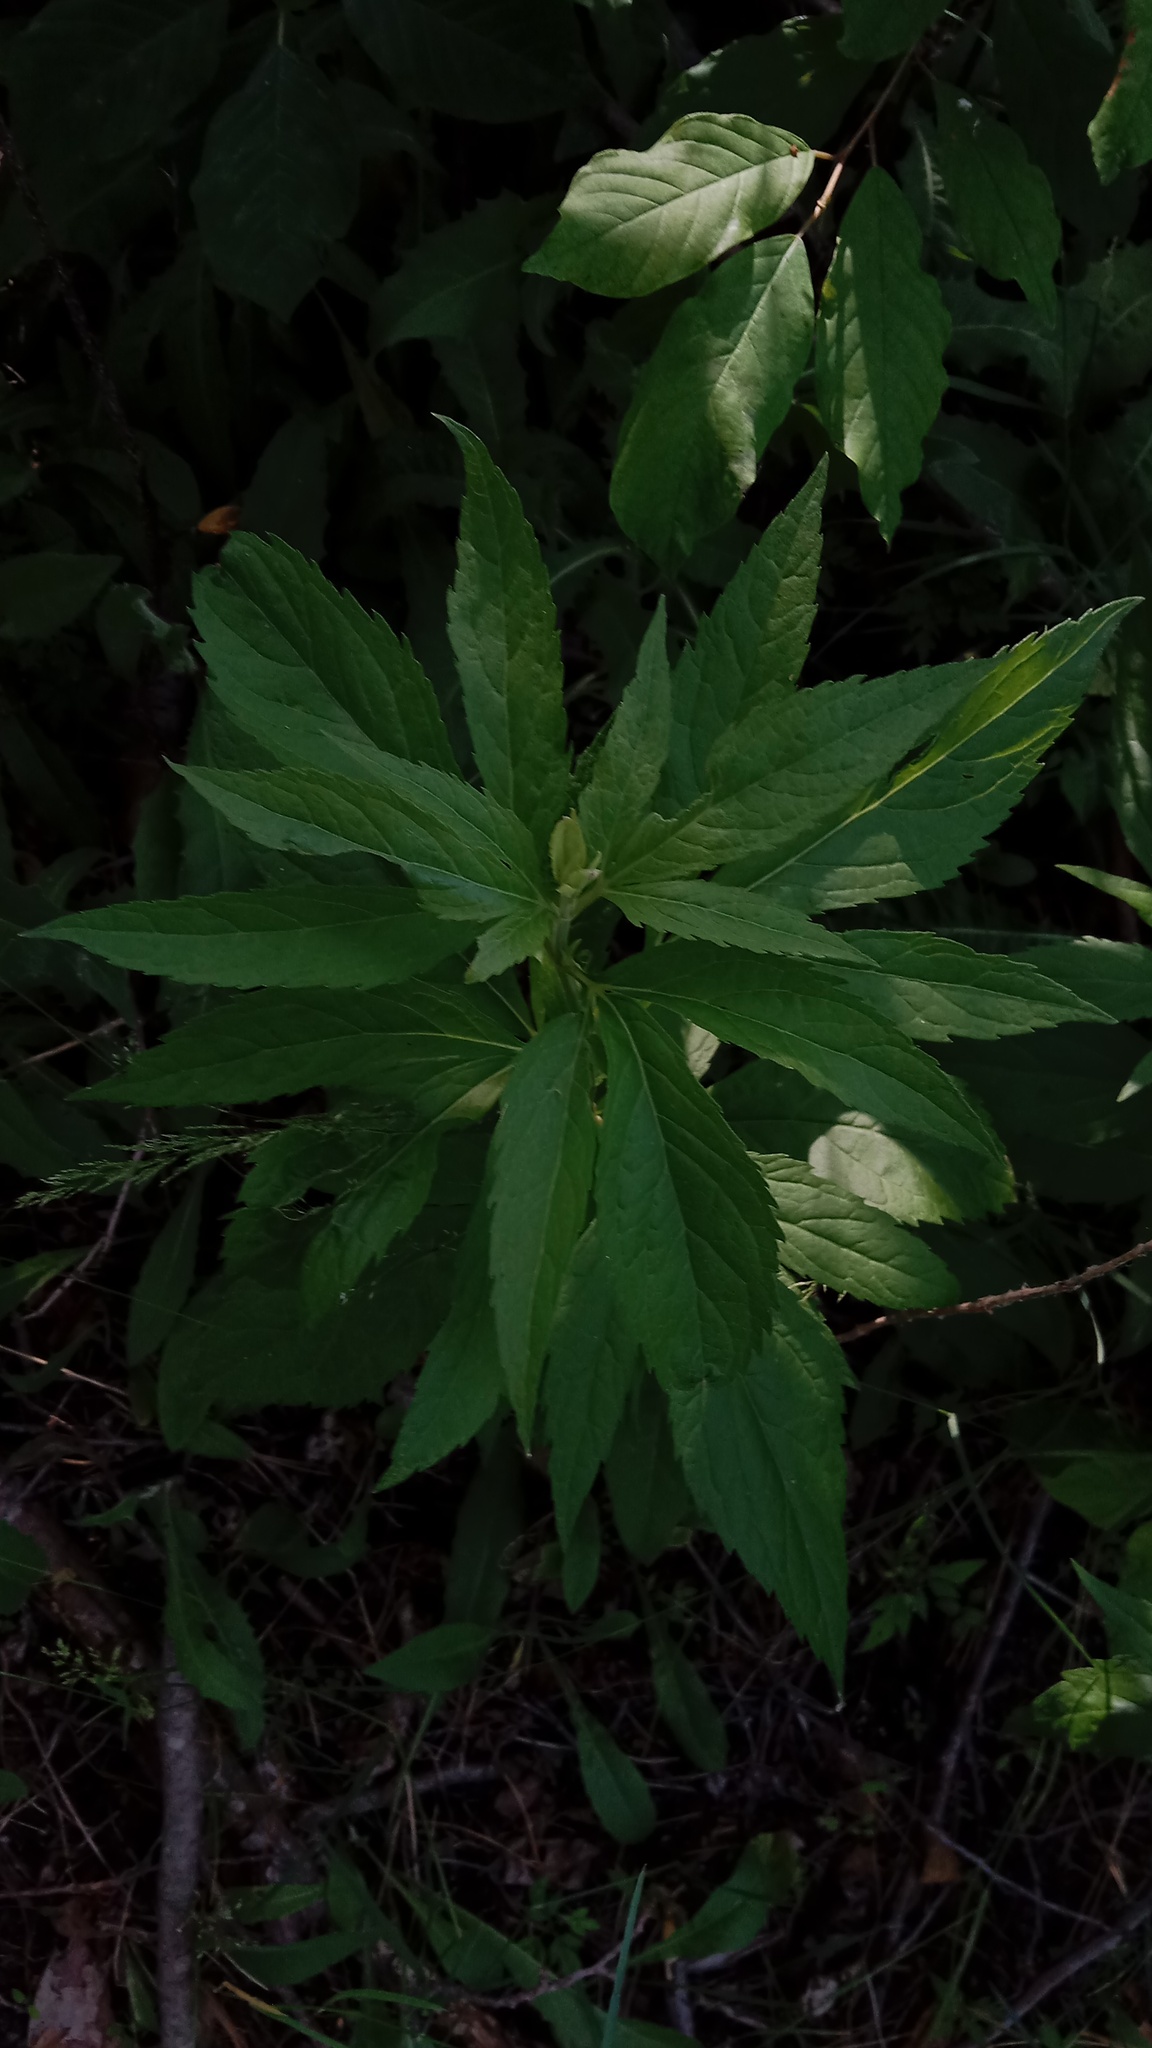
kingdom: Plantae
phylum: Tracheophyta
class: Magnoliopsida
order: Asterales
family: Asteraceae
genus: Eupatorium
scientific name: Eupatorium cannabinum
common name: Hemp-agrimony
